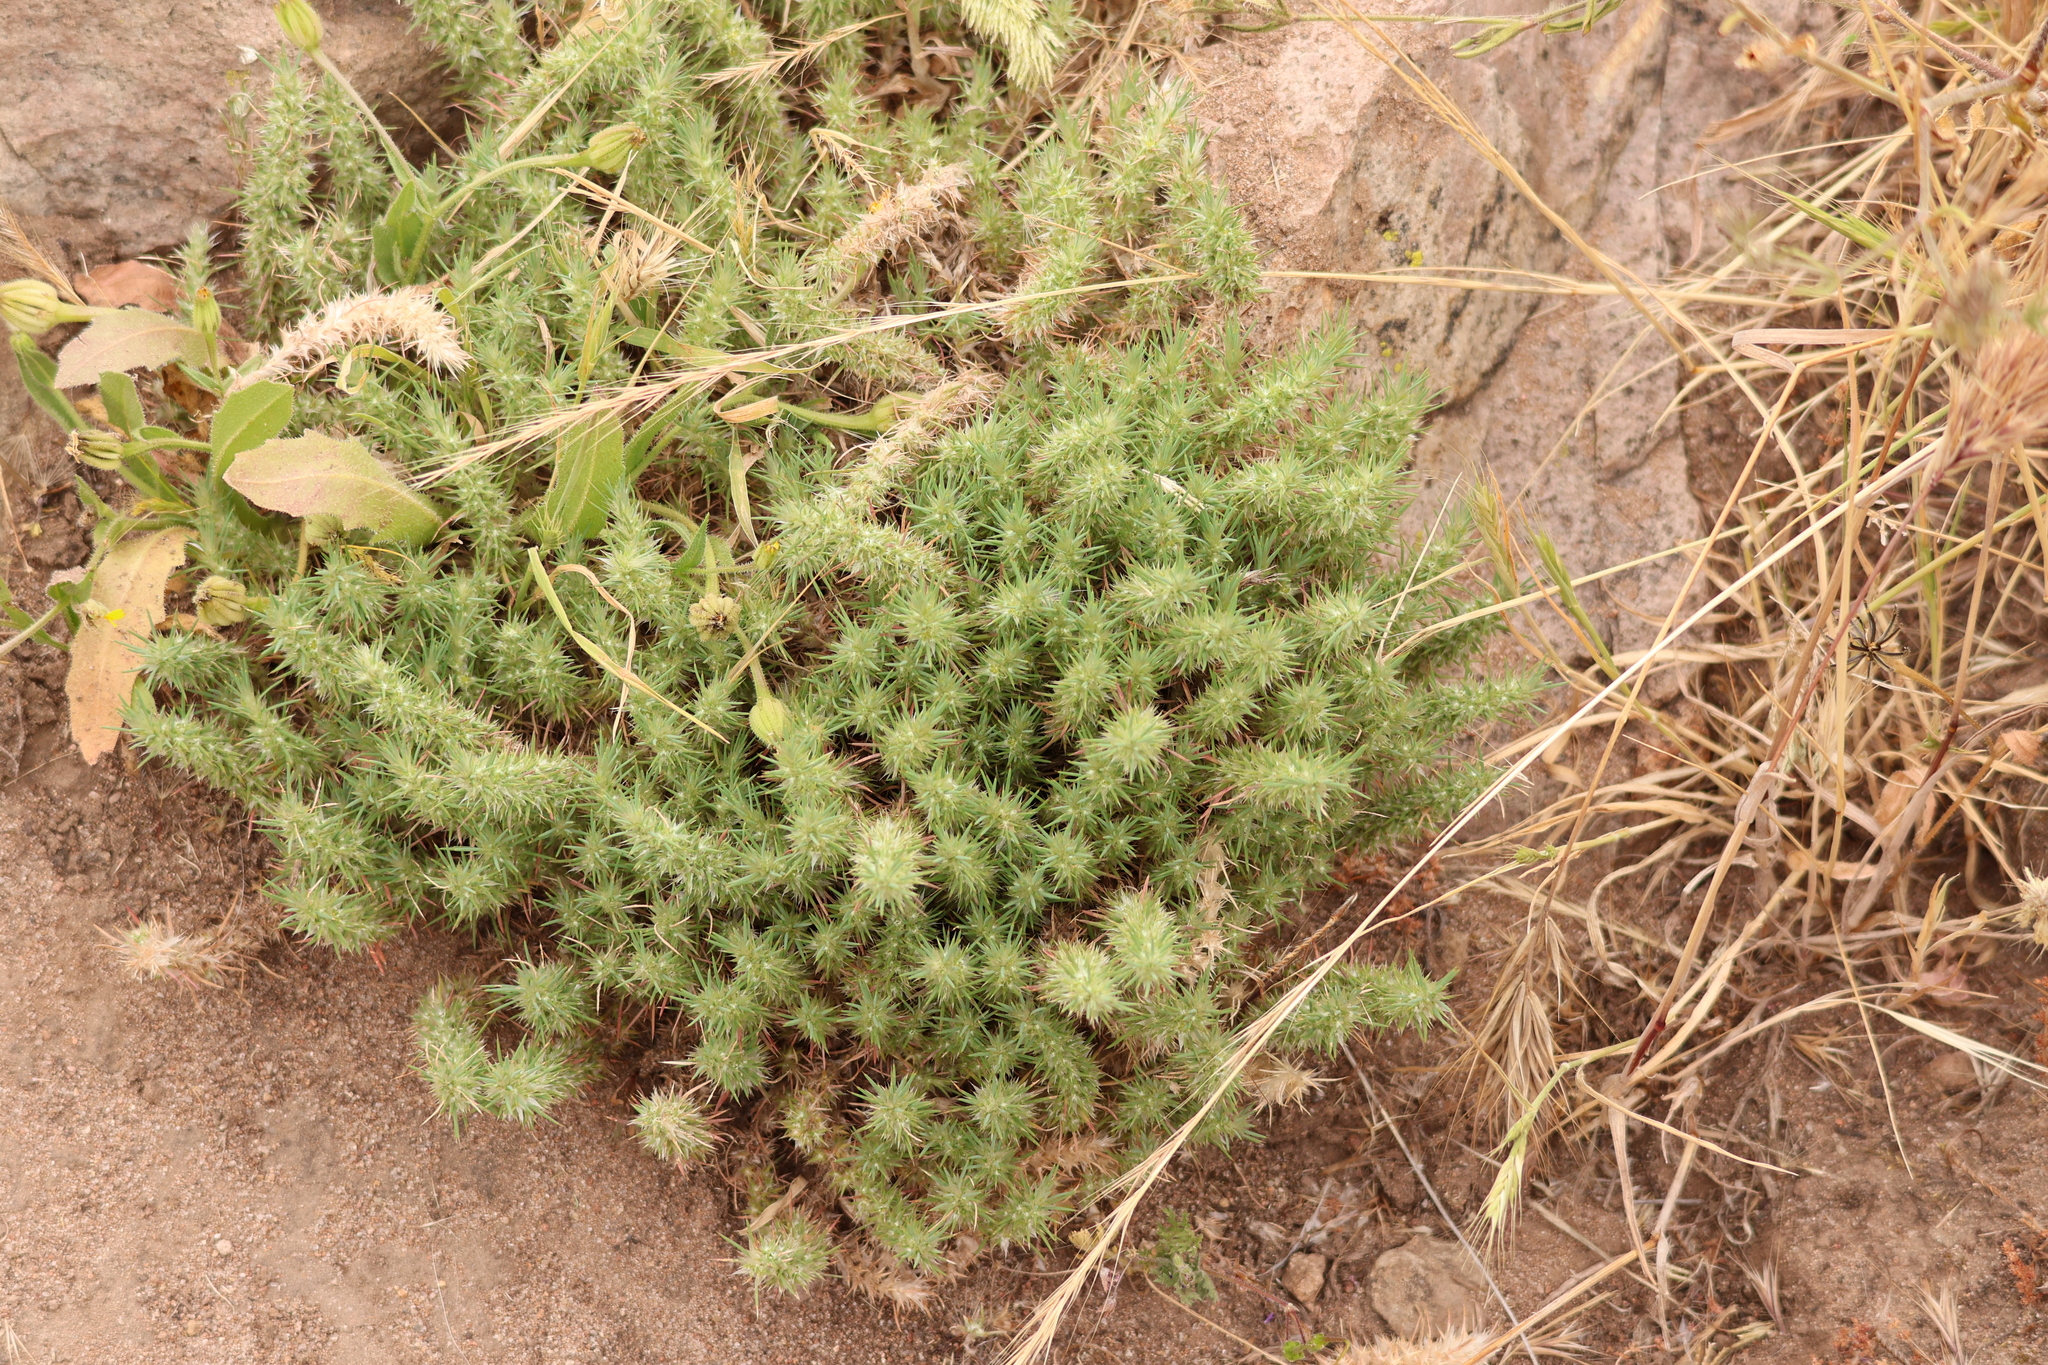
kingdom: Plantae
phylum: Tracheophyta
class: Magnoliopsida
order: Caryophyllales
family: Caryophyllaceae
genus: Cardionema
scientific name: Cardionema ramosissima
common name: Sandcarpet
